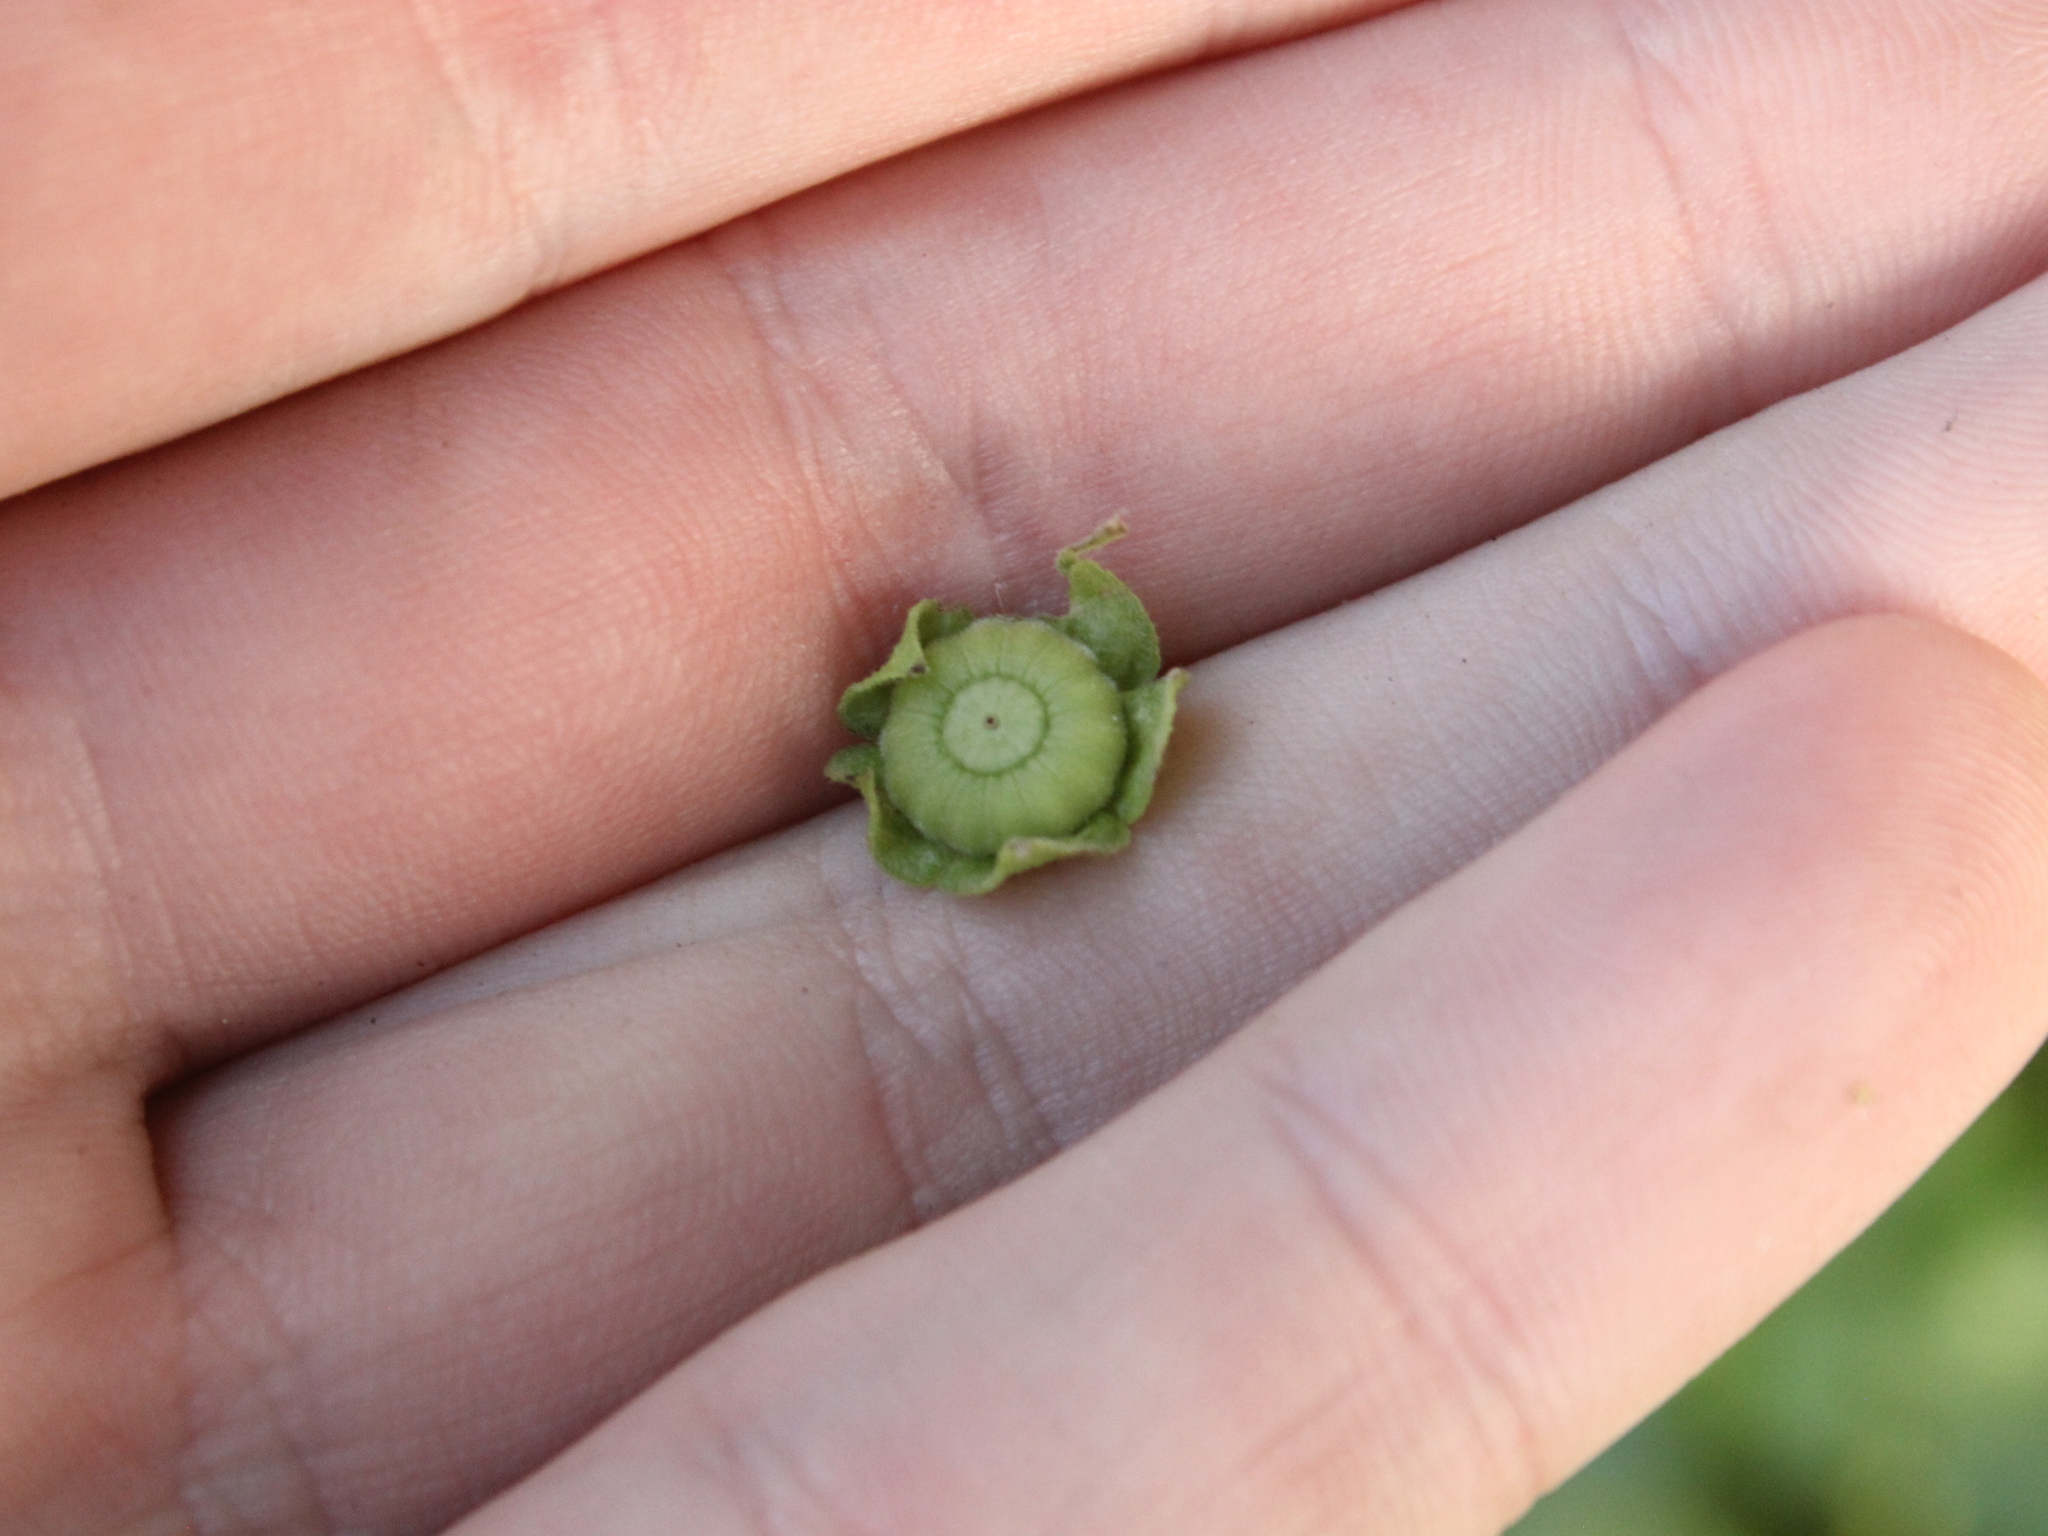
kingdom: Plantae
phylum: Tracheophyta
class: Magnoliopsida
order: Malvales
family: Malvaceae
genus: Malva
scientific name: Malva neglecta
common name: Common mallow
